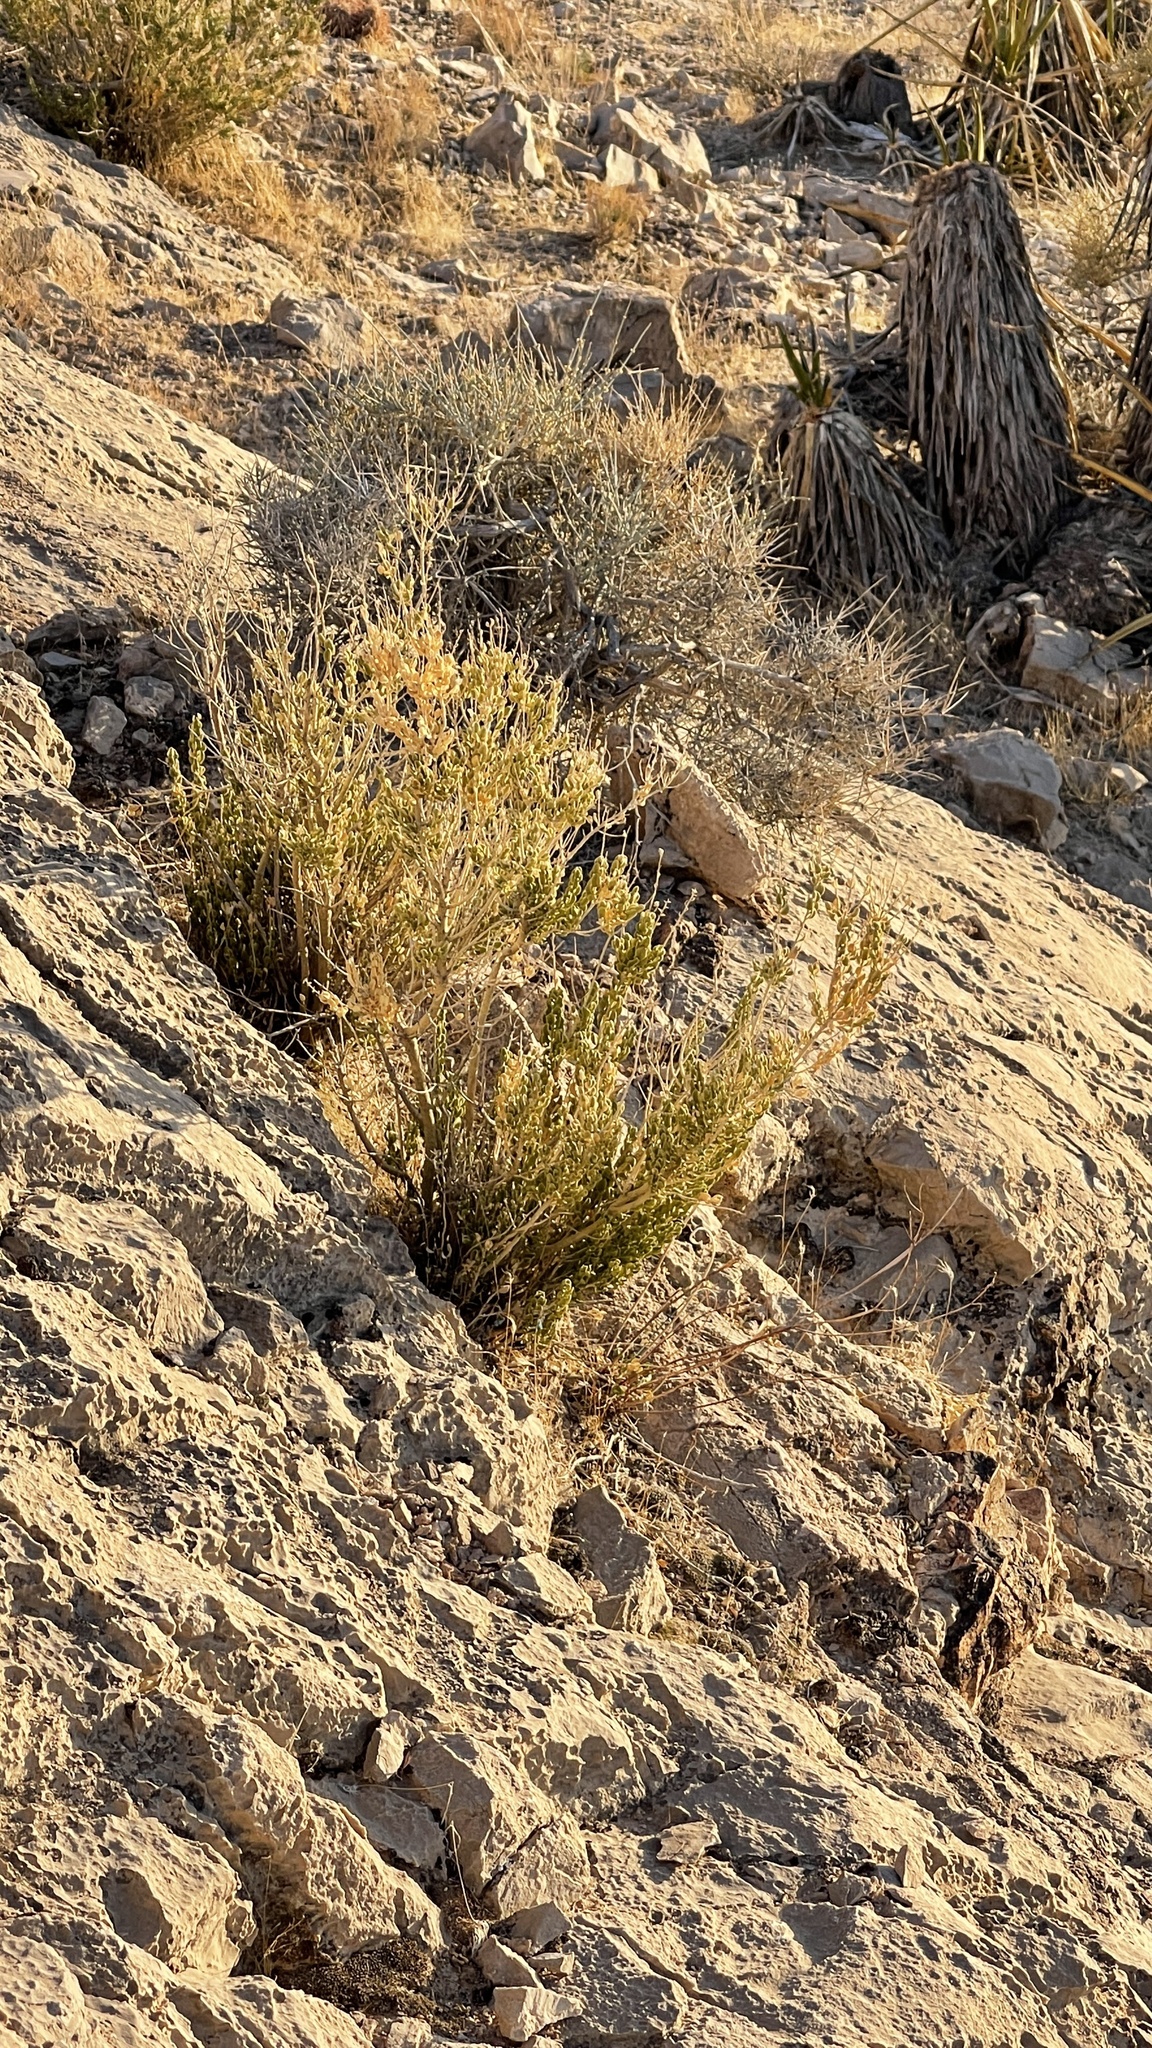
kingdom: Plantae
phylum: Tracheophyta
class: Magnoliopsida
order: Celastrales
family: Celastraceae
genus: Mortonia
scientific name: Mortonia utahensis
